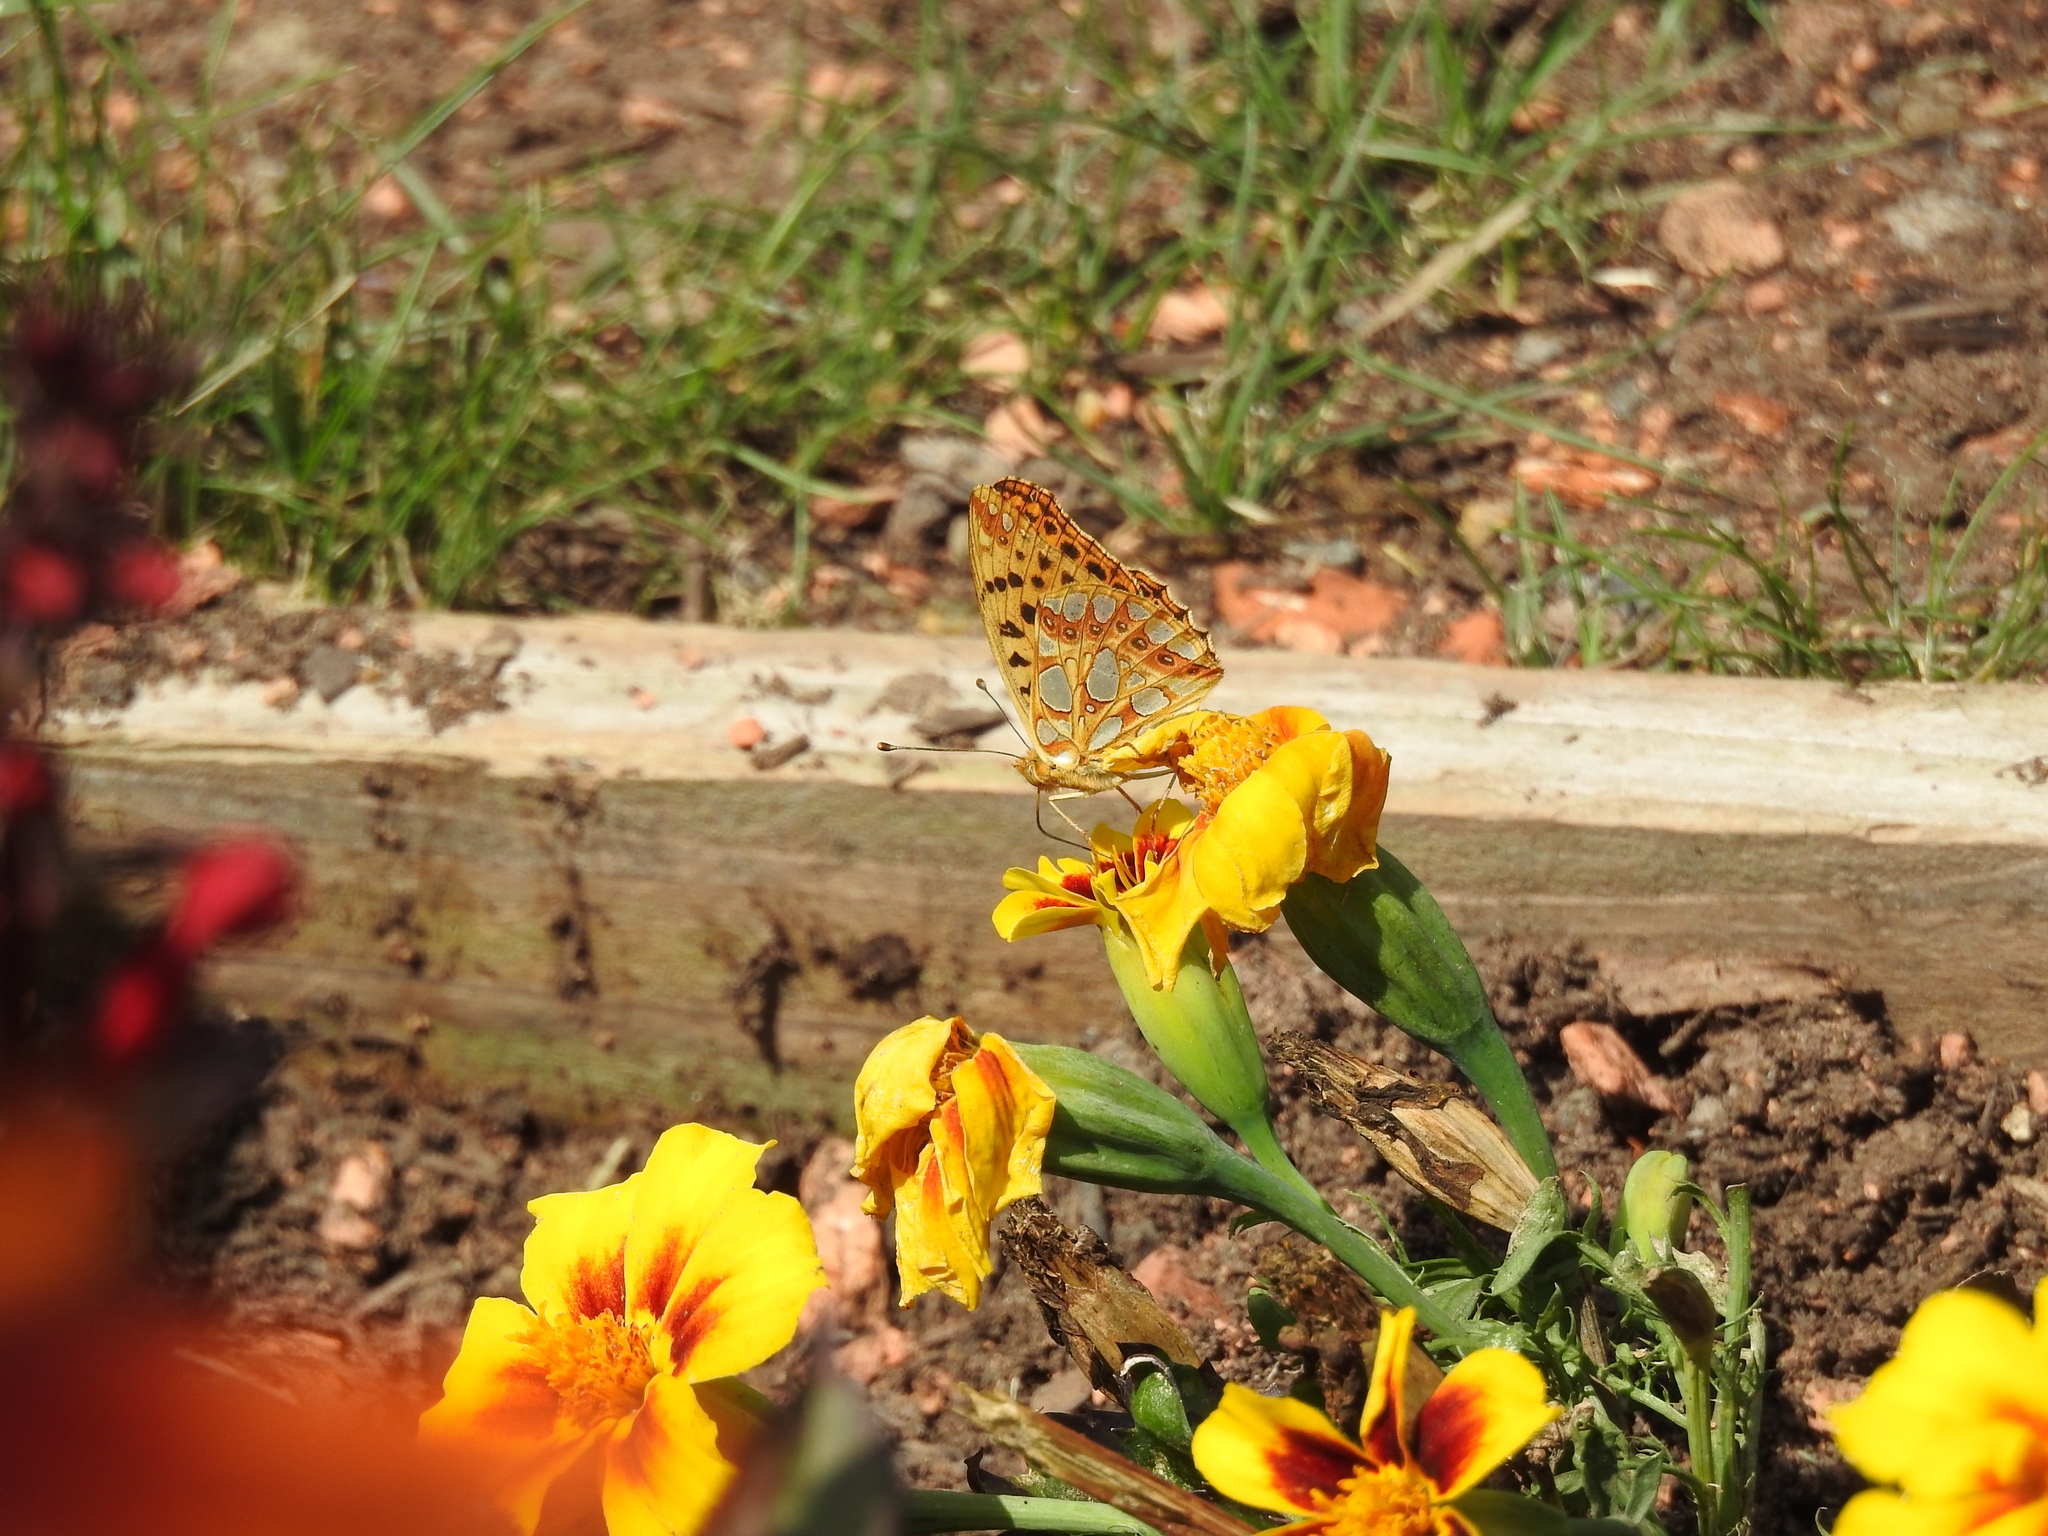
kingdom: Animalia
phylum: Arthropoda
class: Insecta
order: Lepidoptera
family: Nymphalidae
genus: Issoria
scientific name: Issoria lathonia
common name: Queen of spain fritillary
